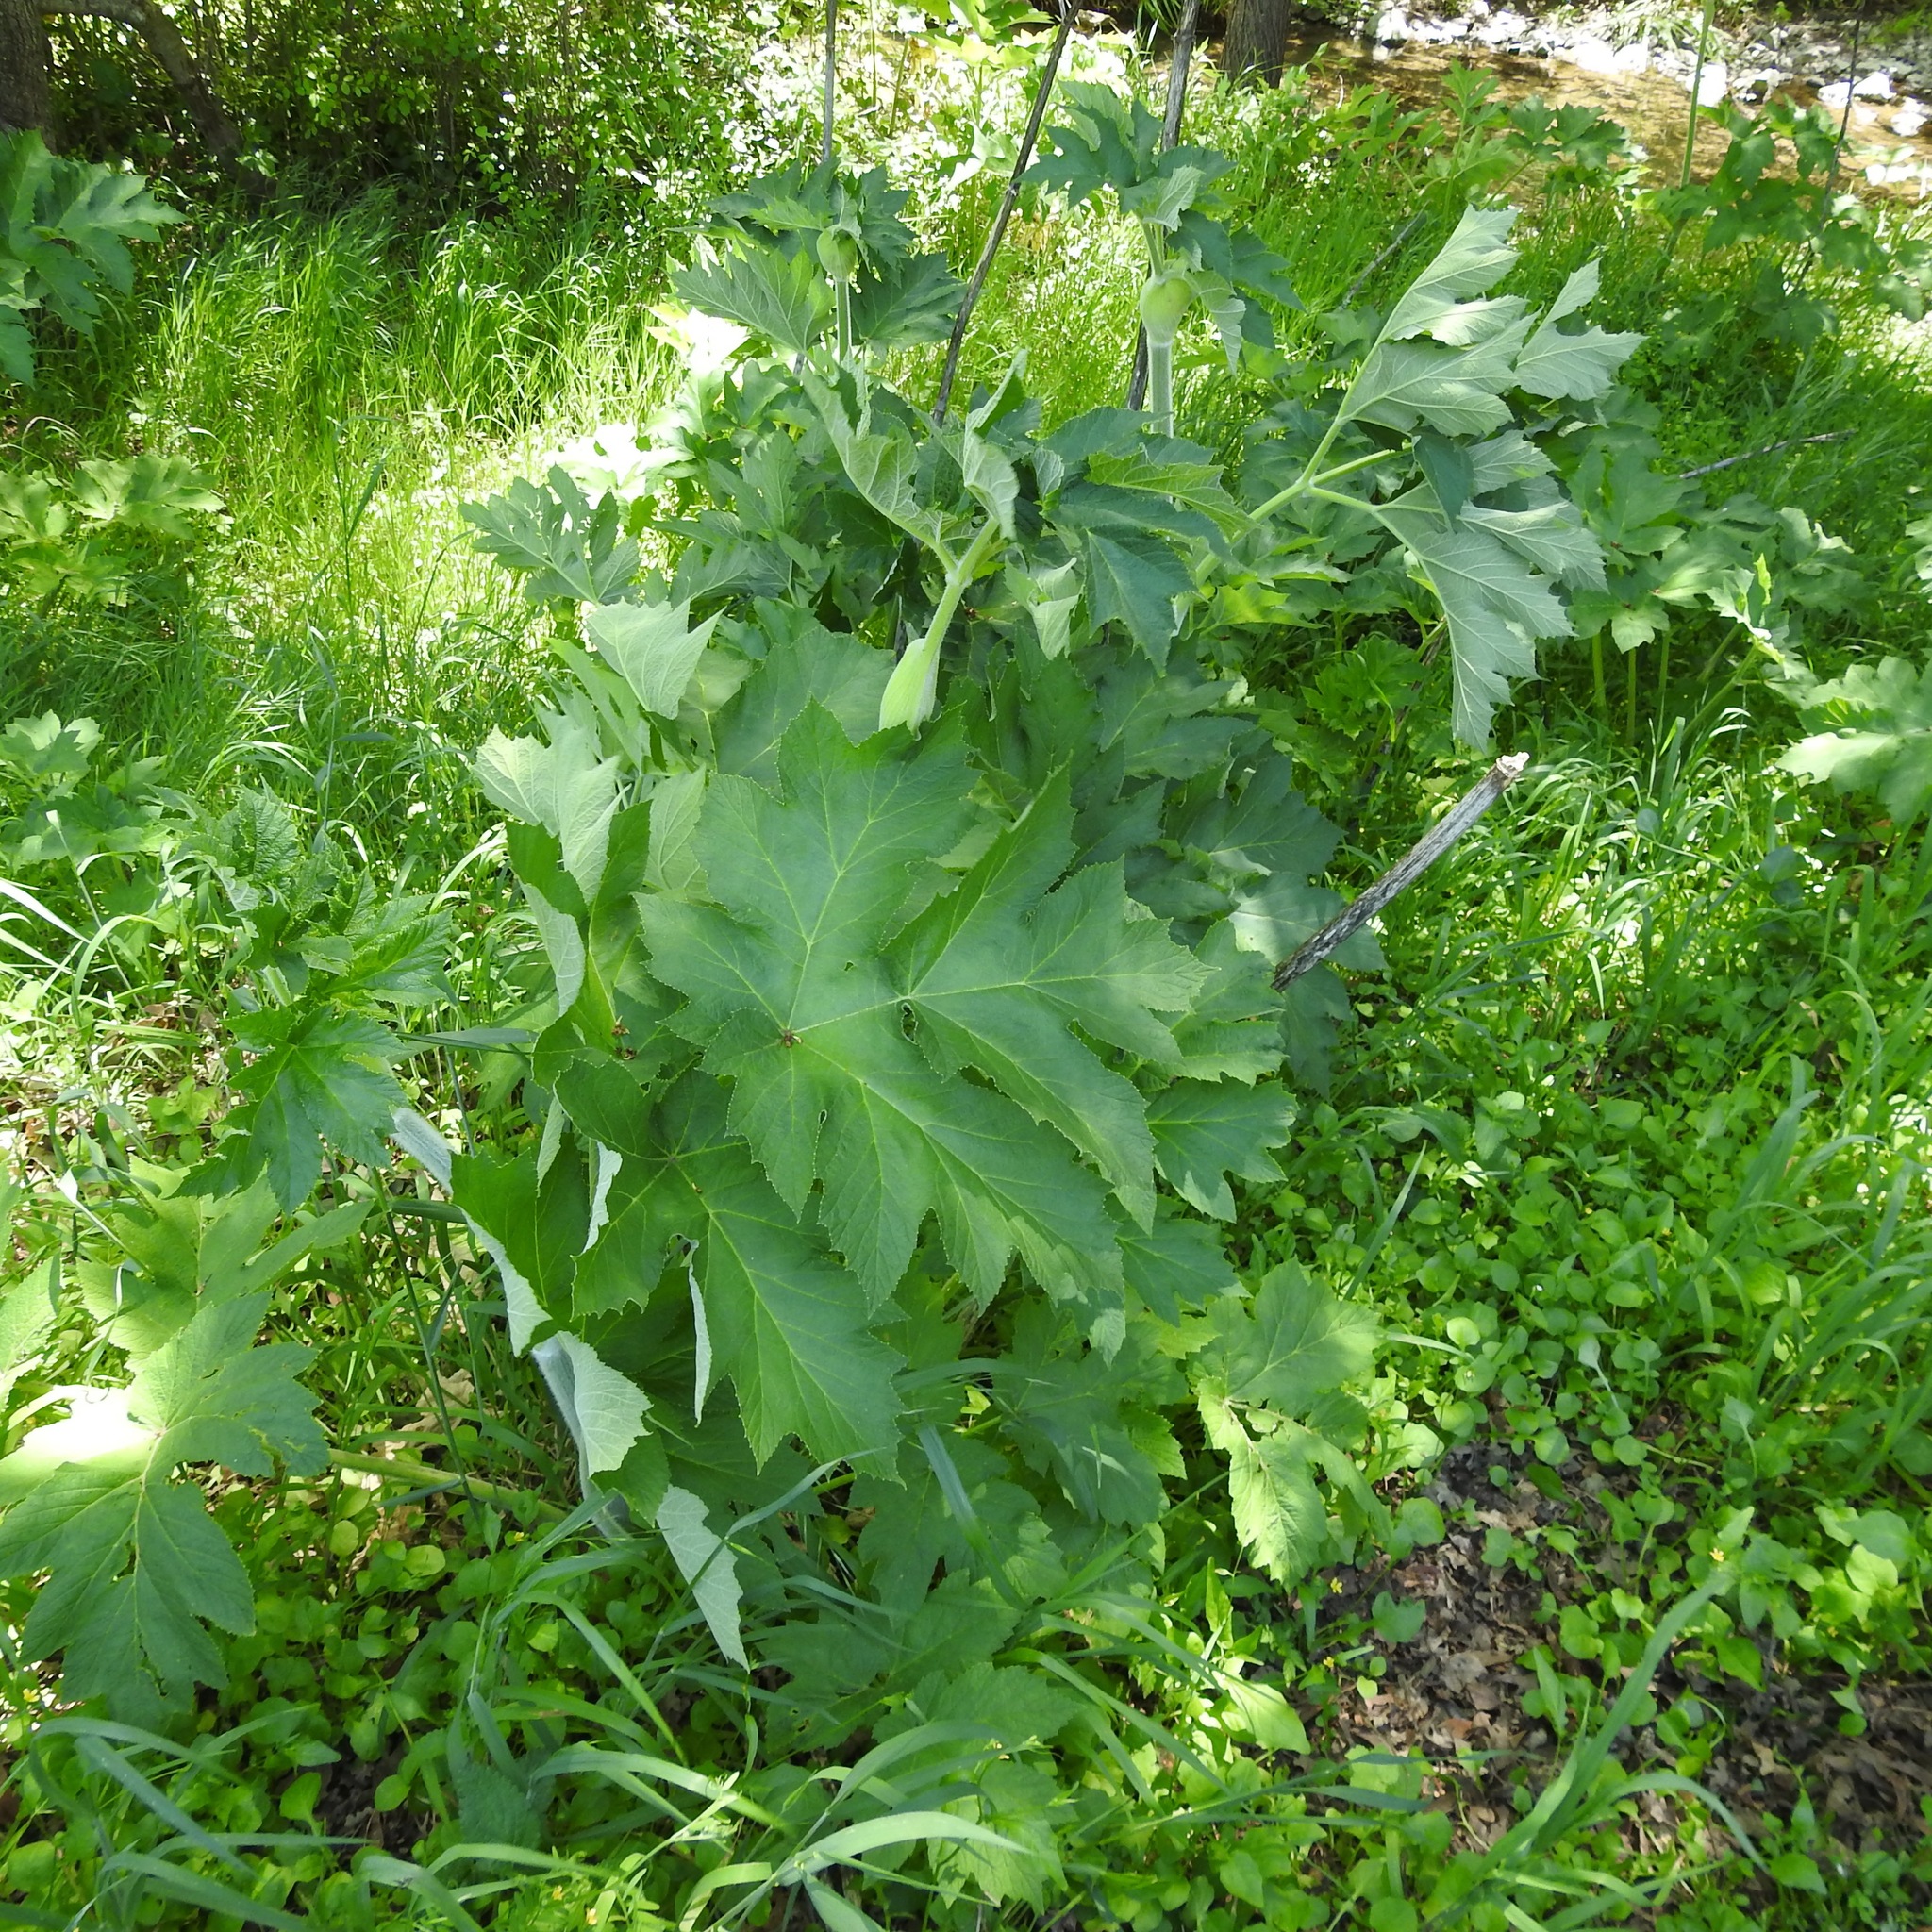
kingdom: Plantae
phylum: Tracheophyta
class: Magnoliopsida
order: Apiales
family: Apiaceae
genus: Heracleum
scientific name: Heracleum maximum
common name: American cow parsnip
